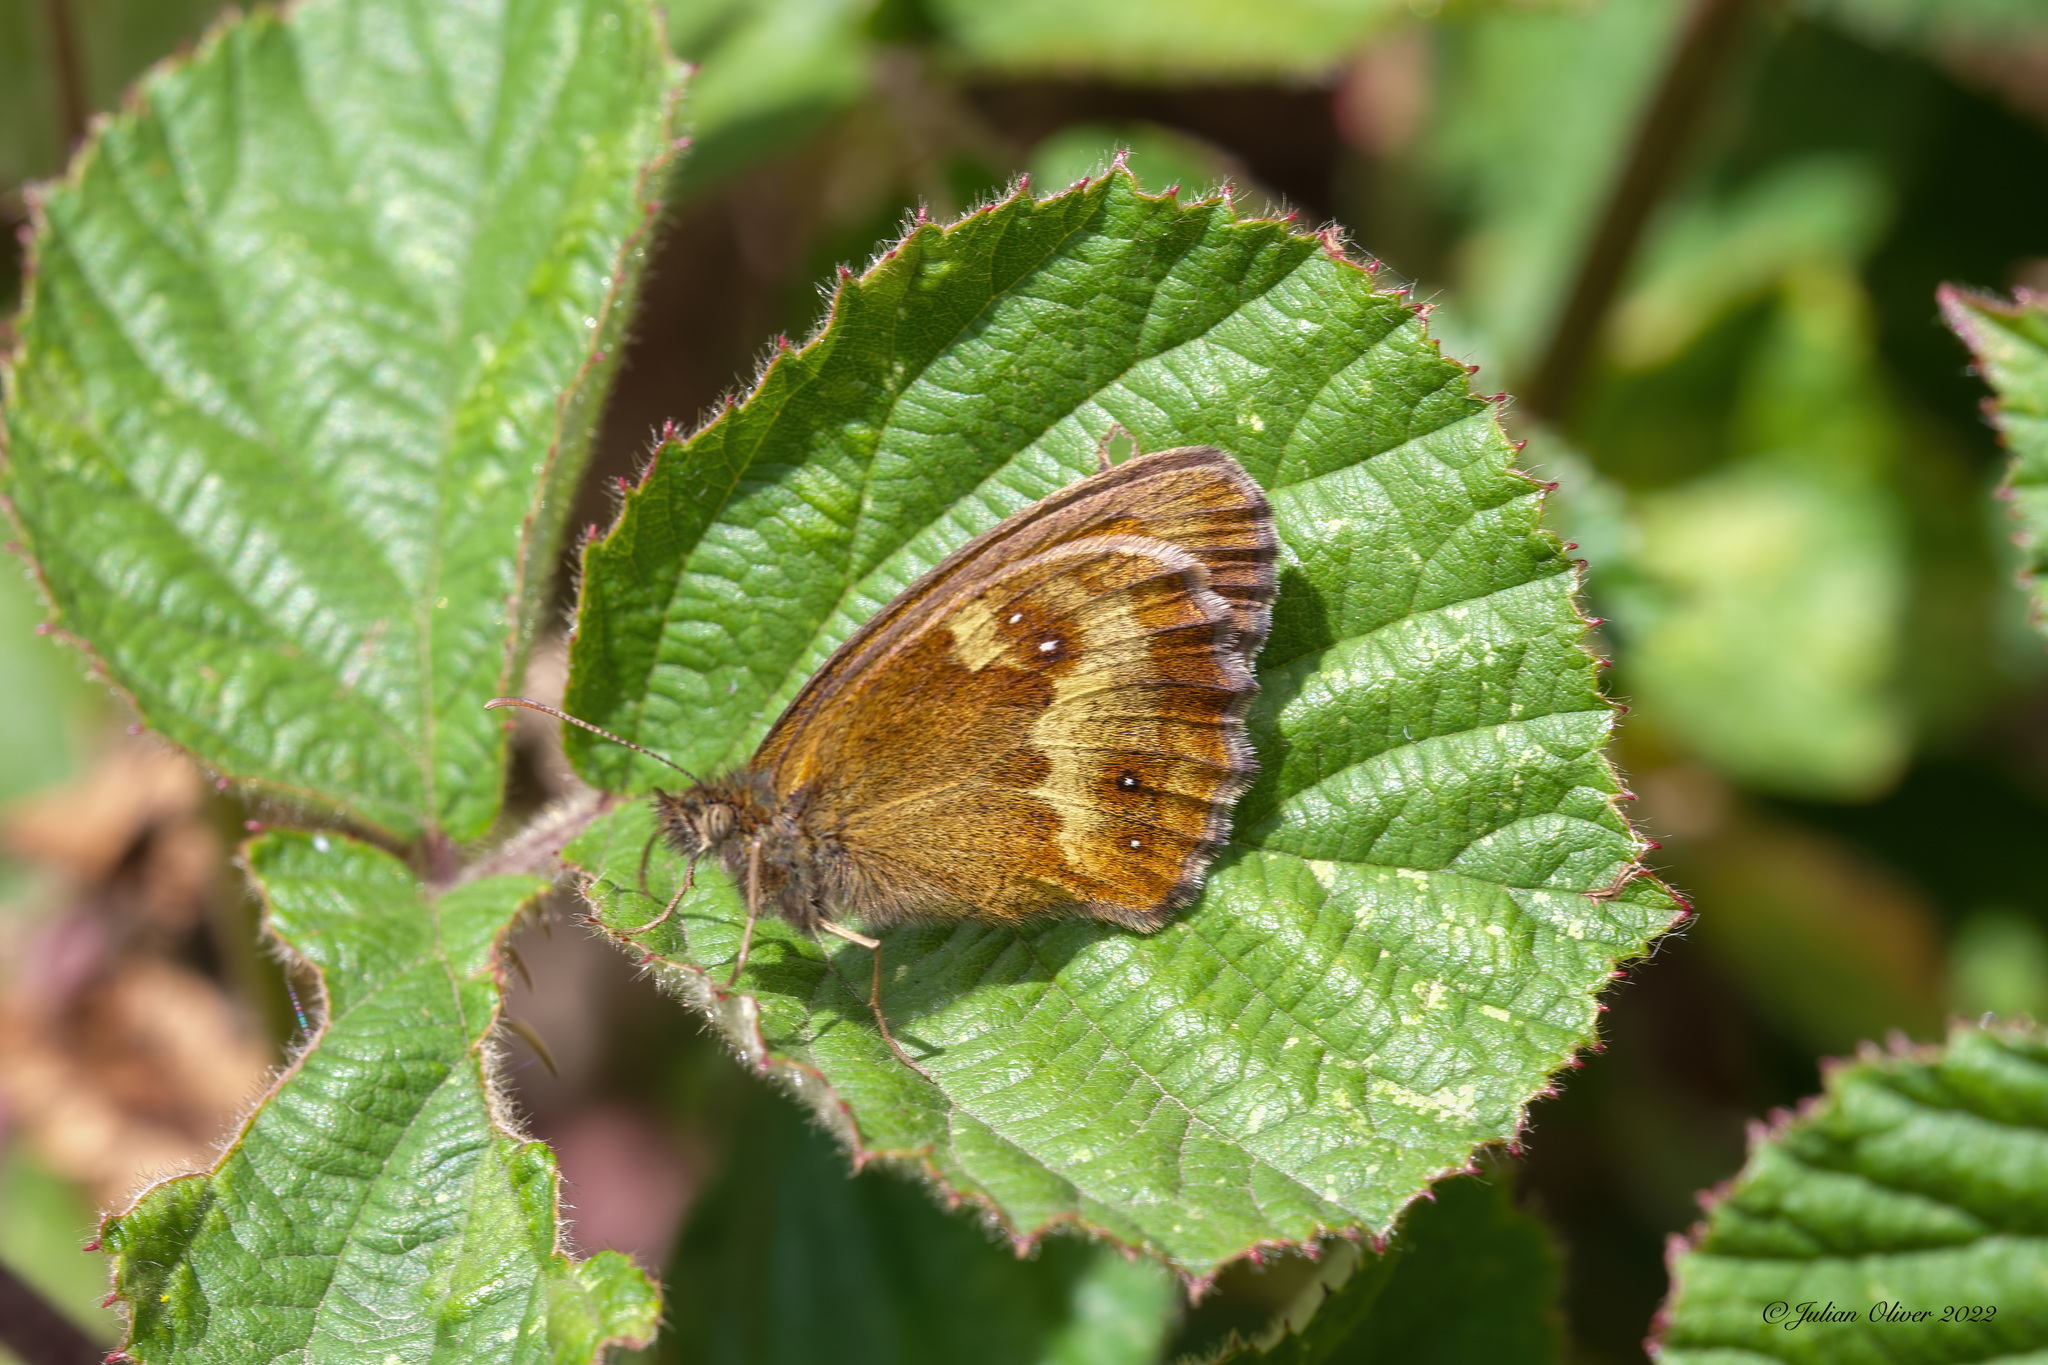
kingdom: Animalia
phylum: Arthropoda
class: Insecta
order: Lepidoptera
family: Nymphalidae
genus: Pyronia
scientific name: Pyronia tithonus
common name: Gatekeeper
